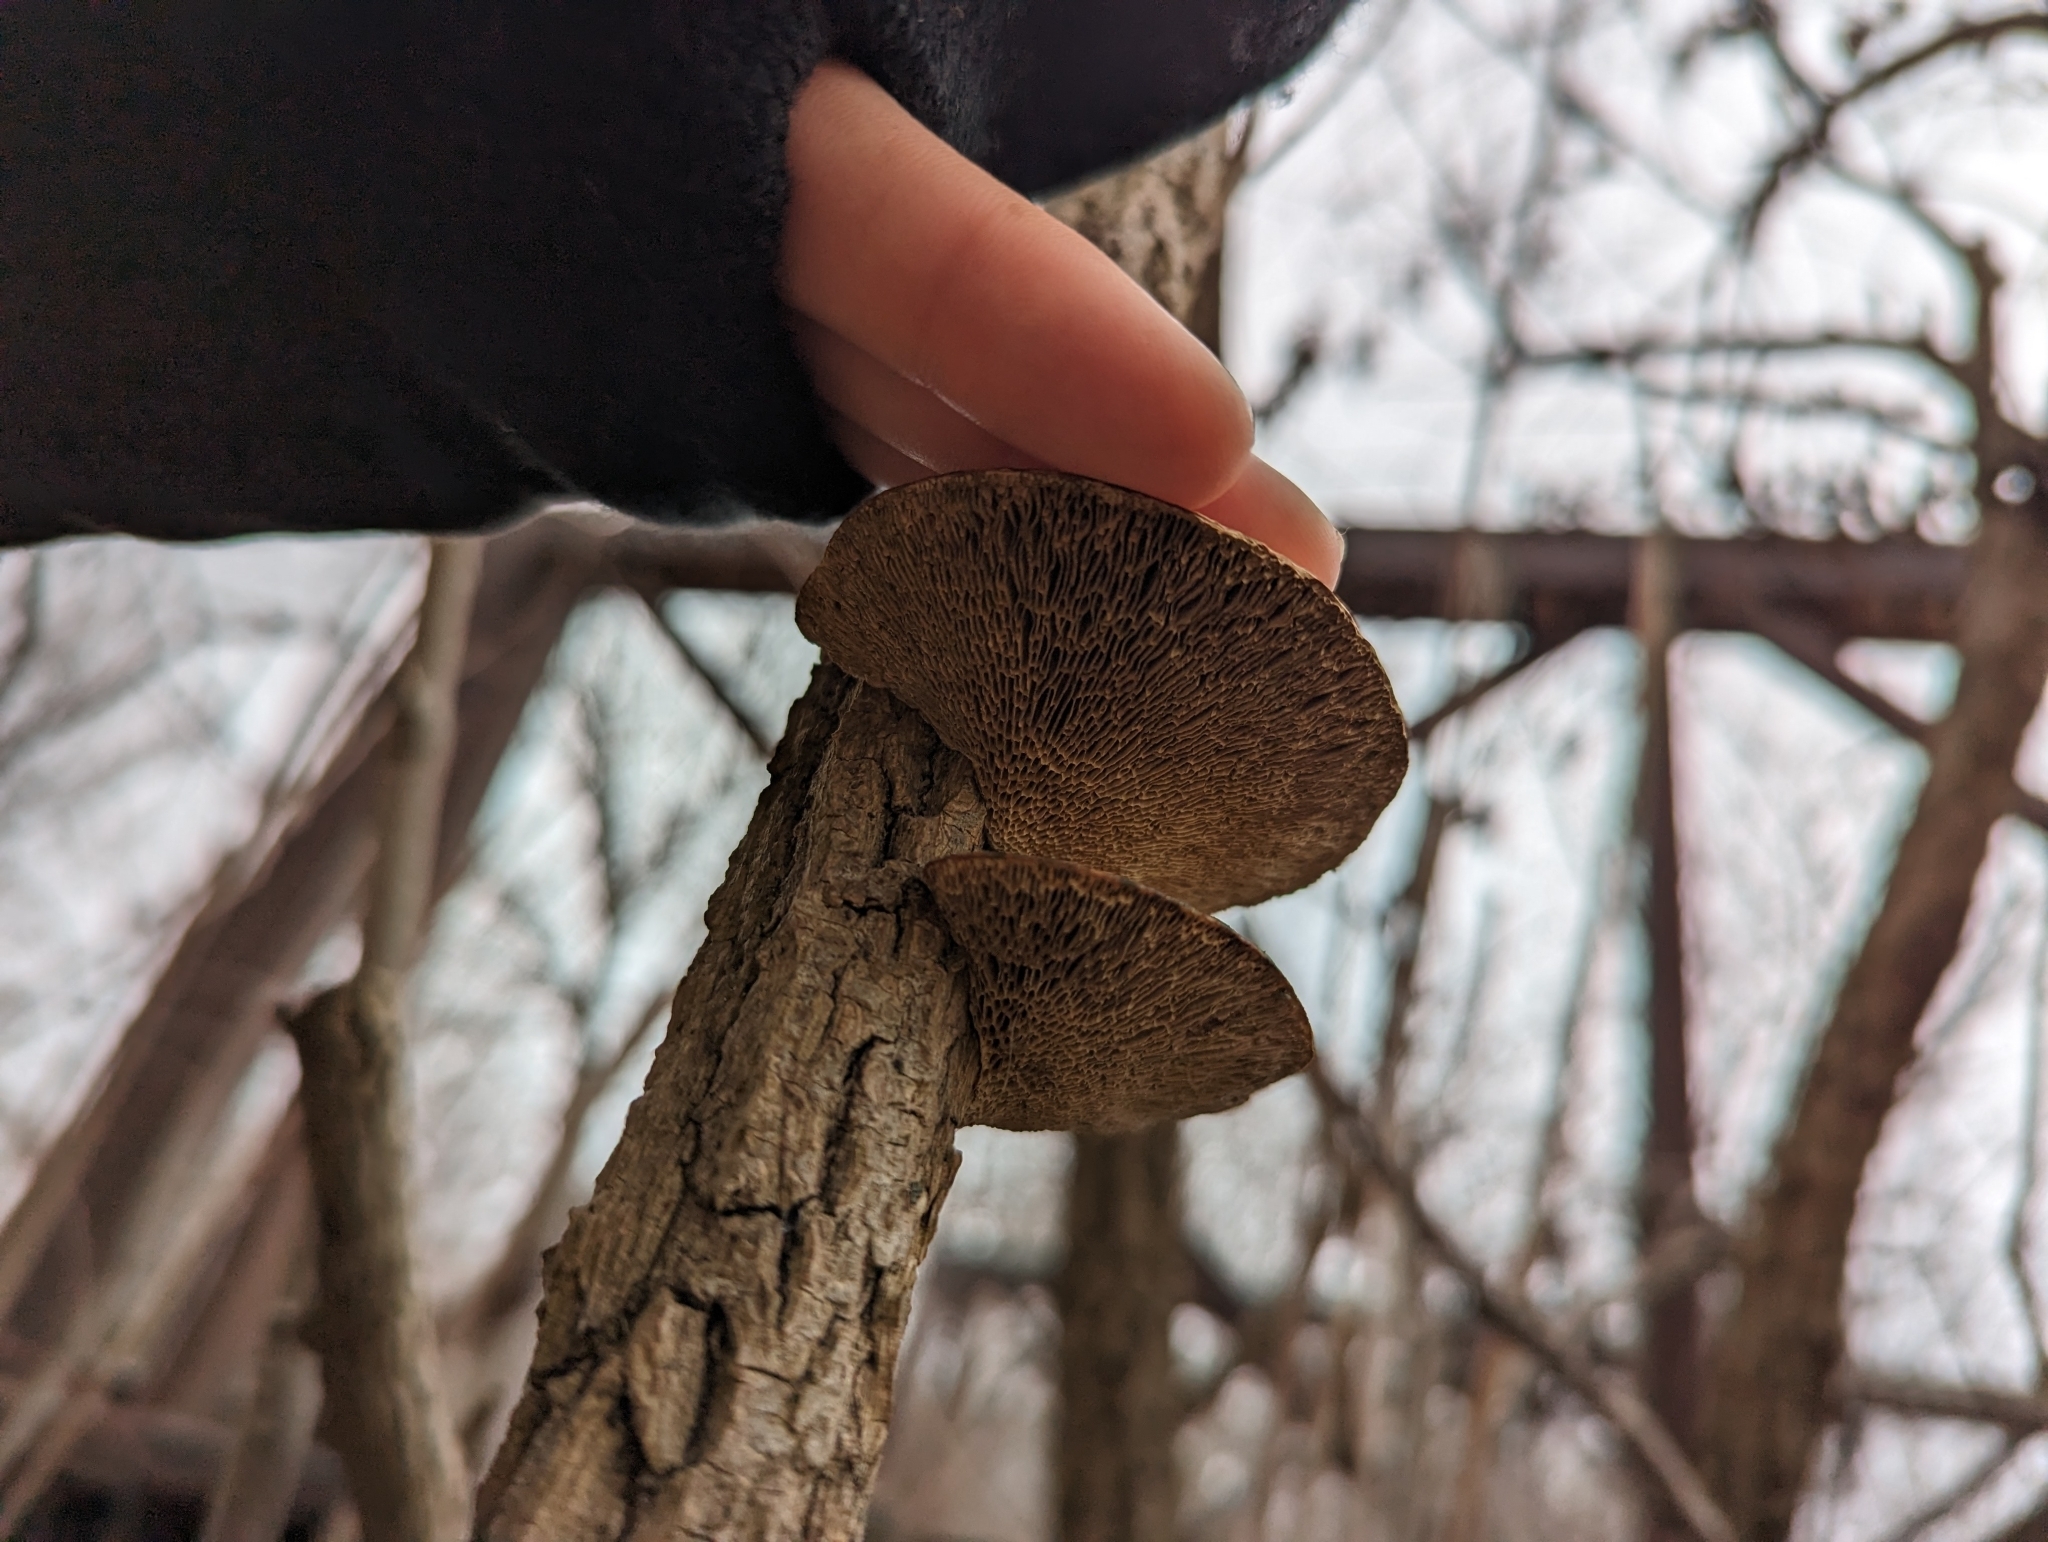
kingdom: Fungi
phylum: Basidiomycota
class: Agaricomycetes
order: Polyporales
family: Polyporaceae
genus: Daedaleopsis
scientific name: Daedaleopsis confragosa
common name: Blushing bracket
